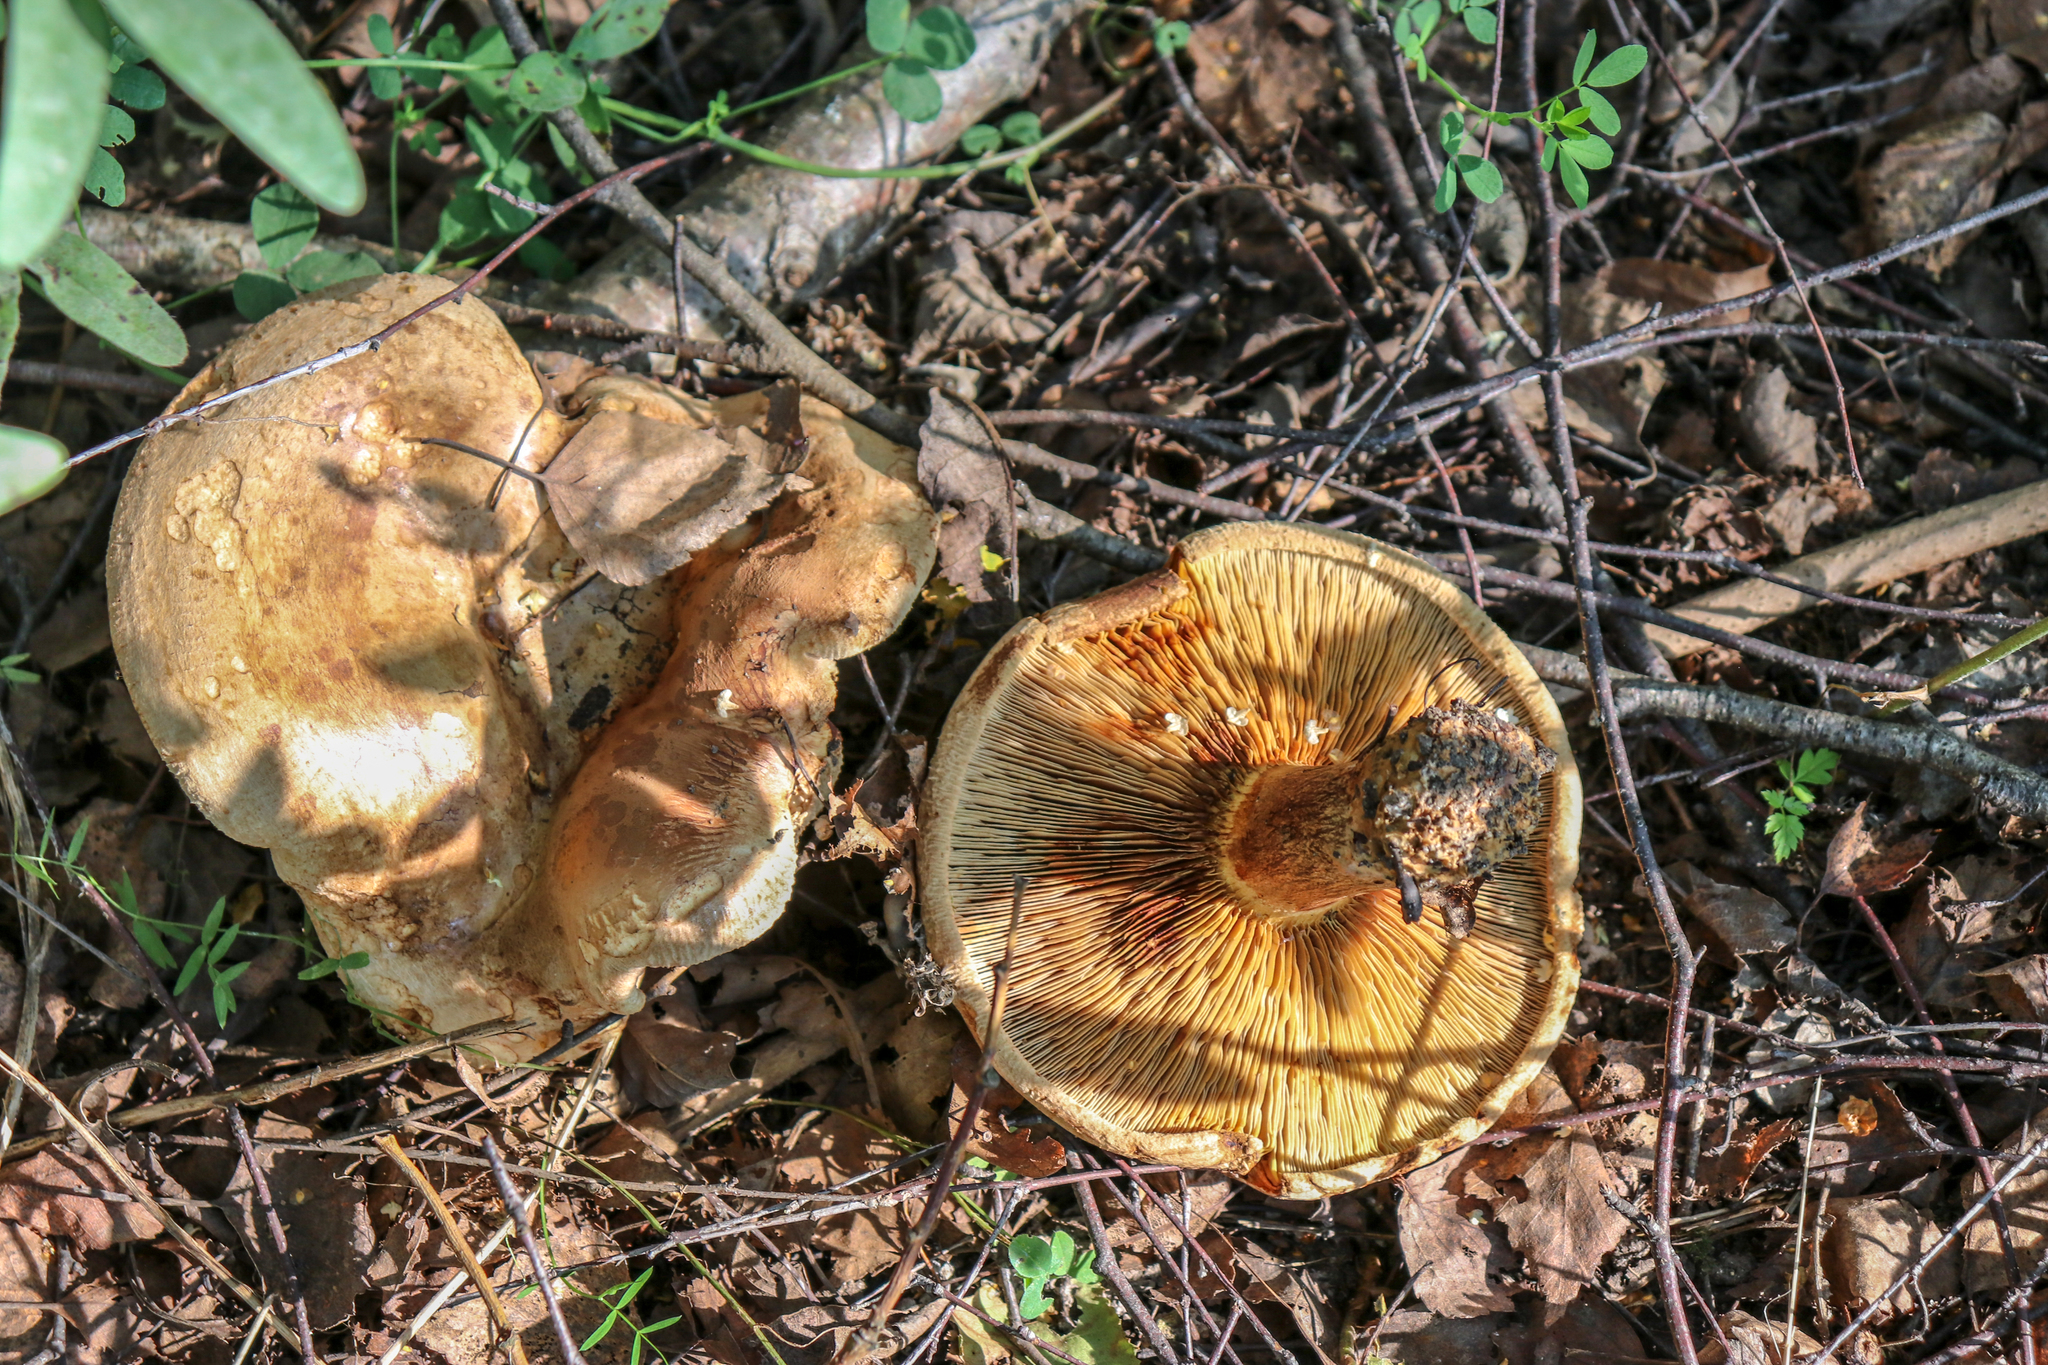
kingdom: Fungi
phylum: Basidiomycota
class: Agaricomycetes
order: Boletales
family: Paxillaceae
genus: Paxillus
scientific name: Paxillus involutus
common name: Brown roll rim
